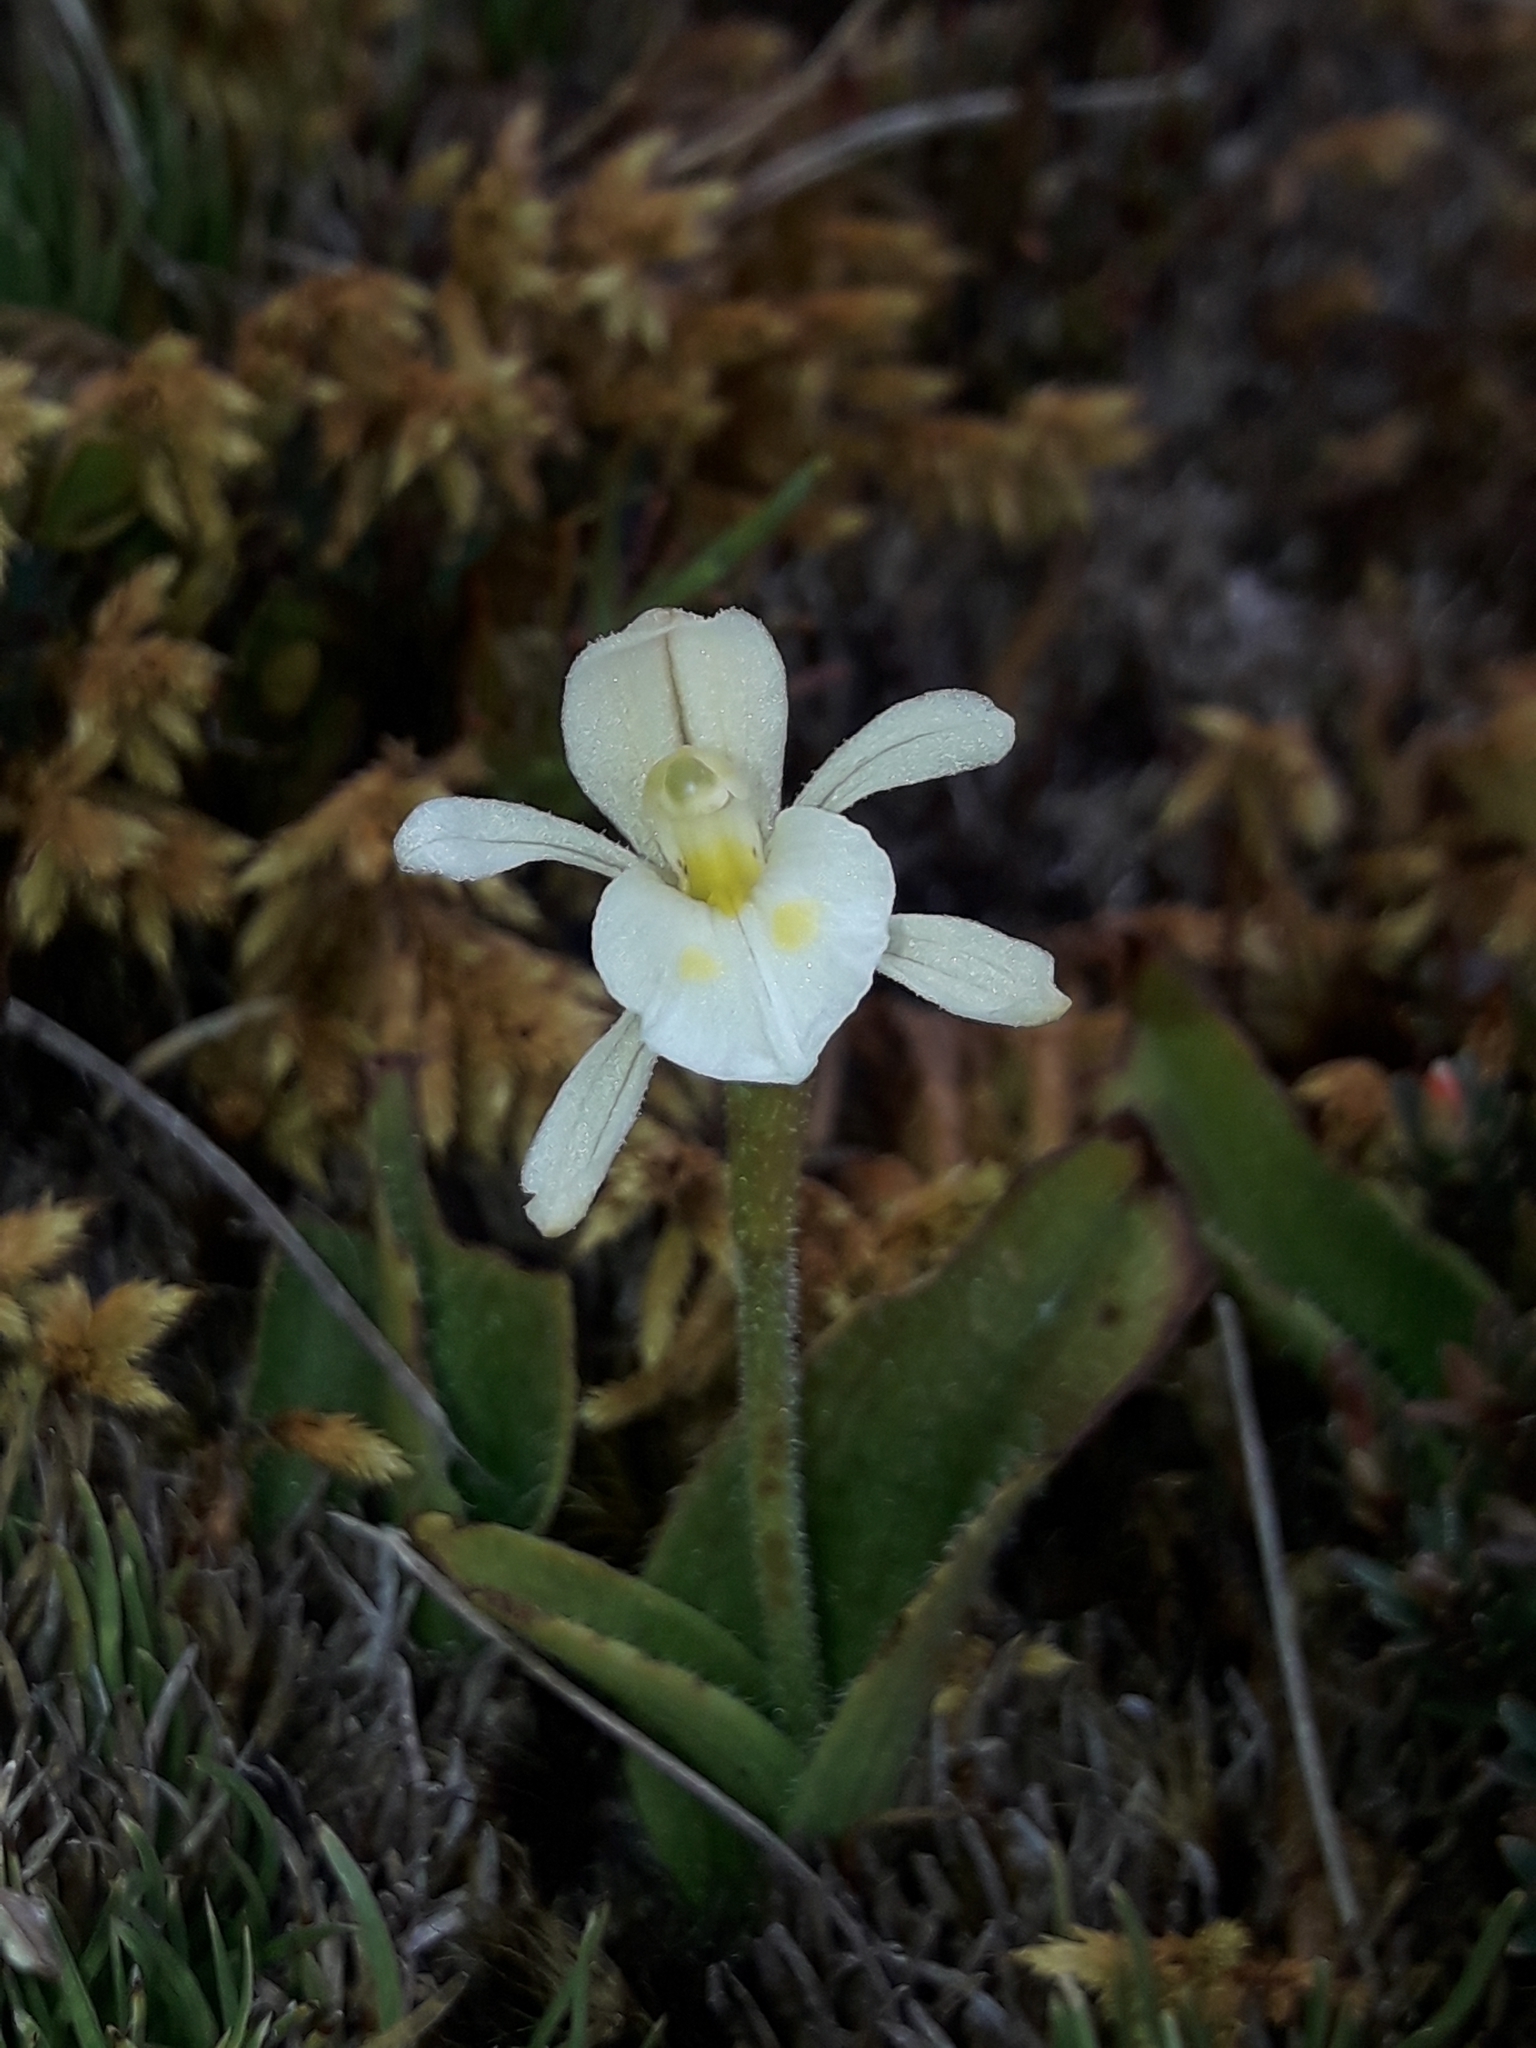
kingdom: Plantae
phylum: Tracheophyta
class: Liliopsida
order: Asparagales
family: Orchidaceae
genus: Aporostylis
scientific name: Aporostylis bifolia
